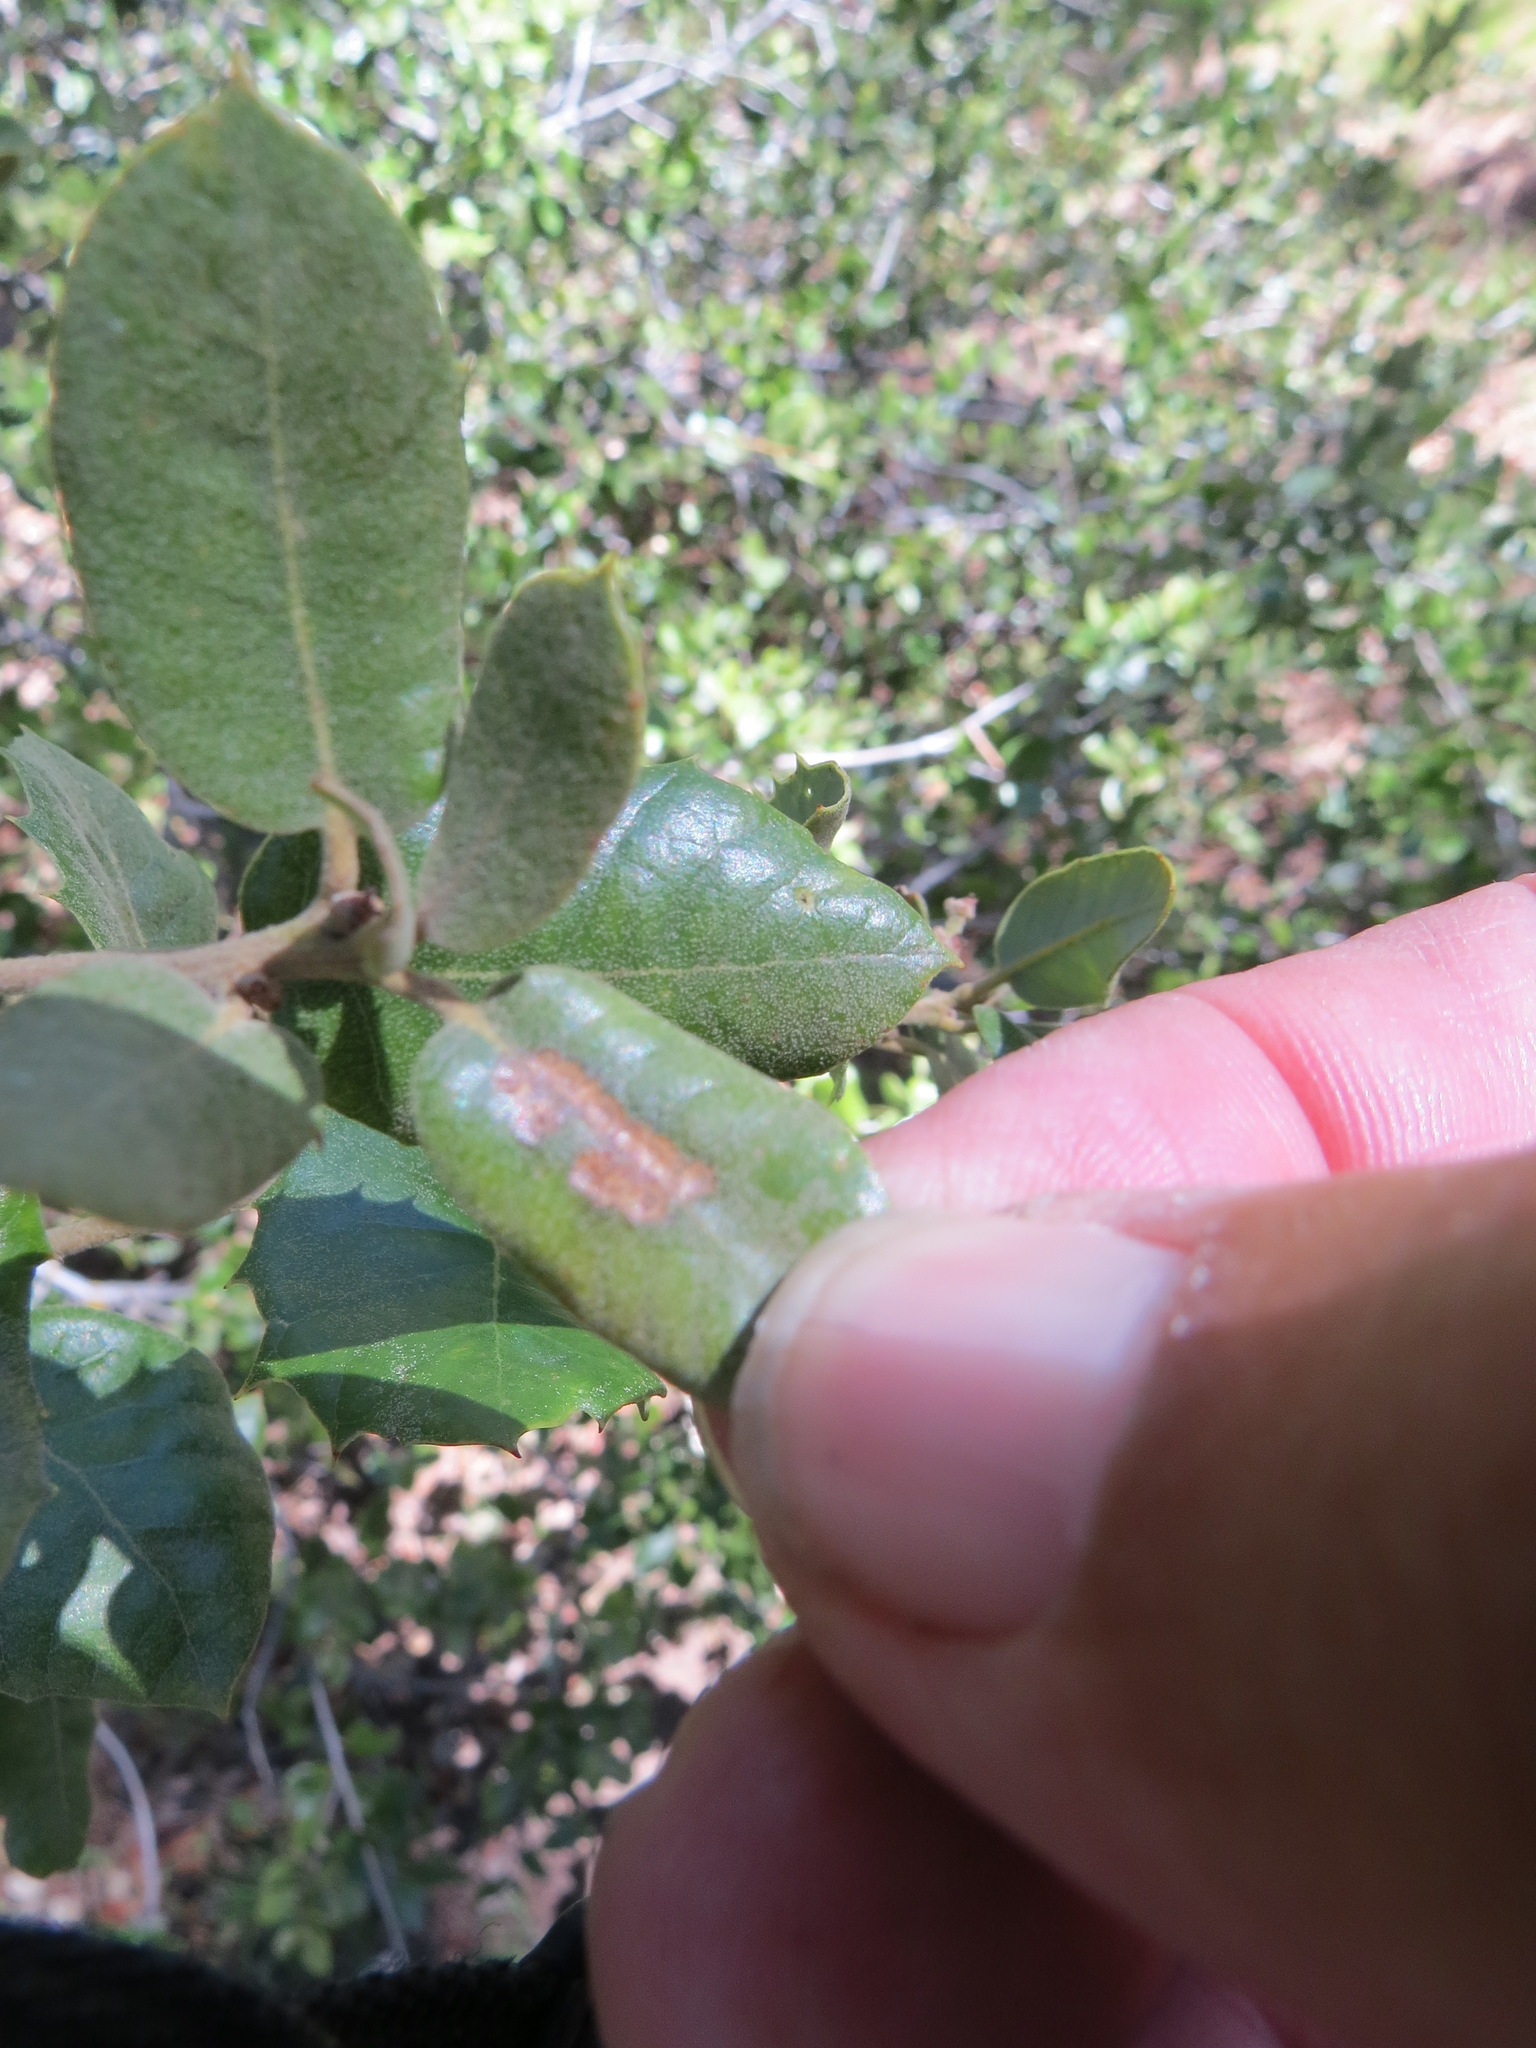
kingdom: Animalia
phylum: Arthropoda
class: Insecta
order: Hymenoptera
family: Cynipidae
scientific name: Cynipidae
